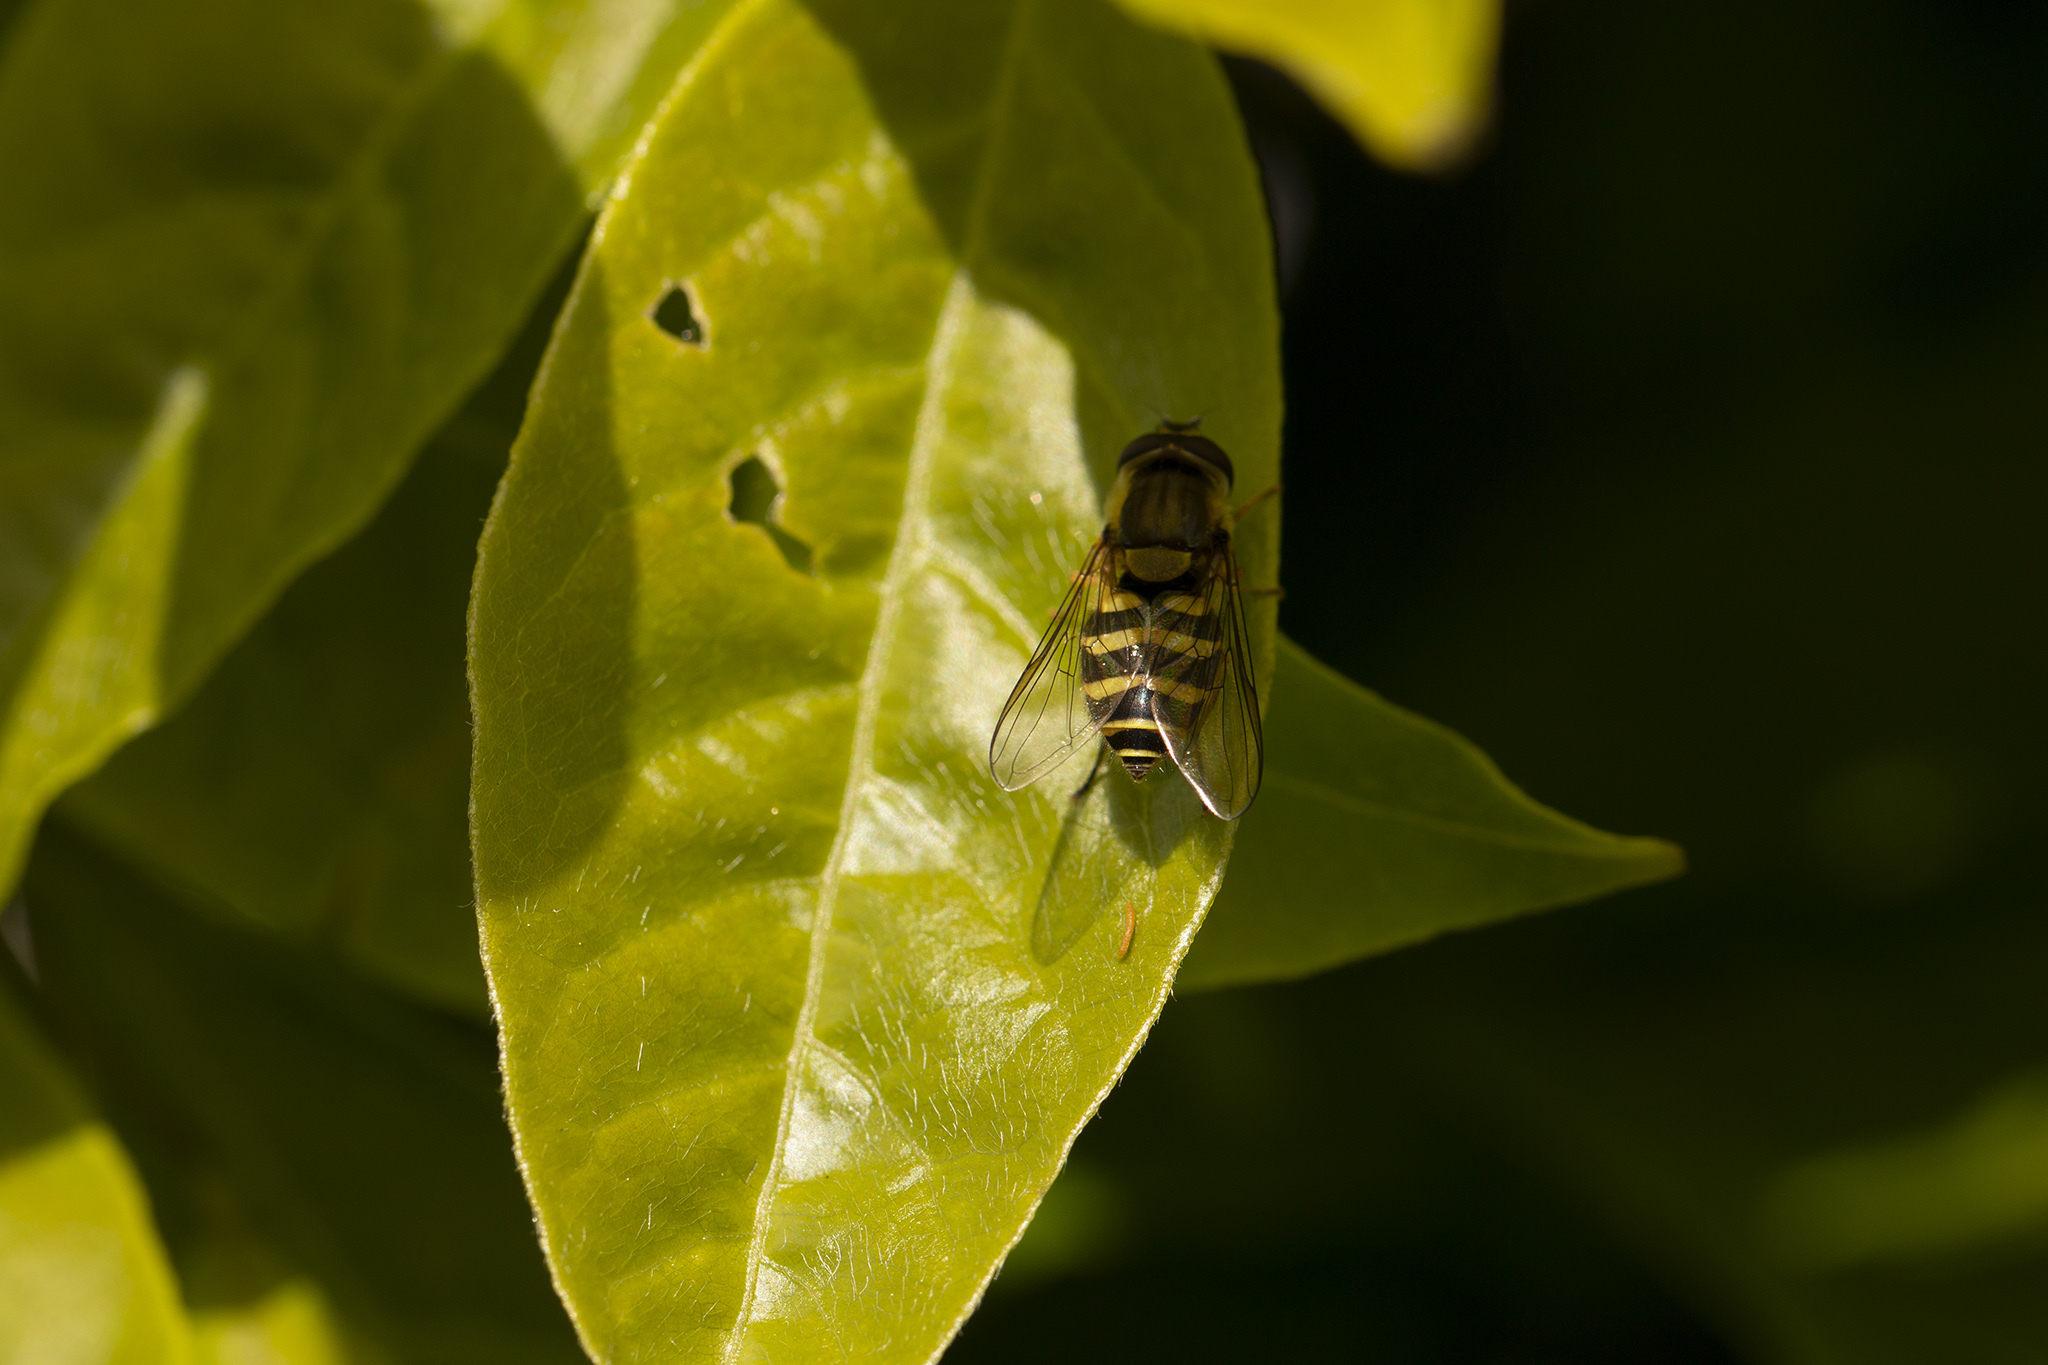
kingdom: Animalia
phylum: Arthropoda
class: Insecta
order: Diptera
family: Syrphidae
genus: Syrphus
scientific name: Syrphus
